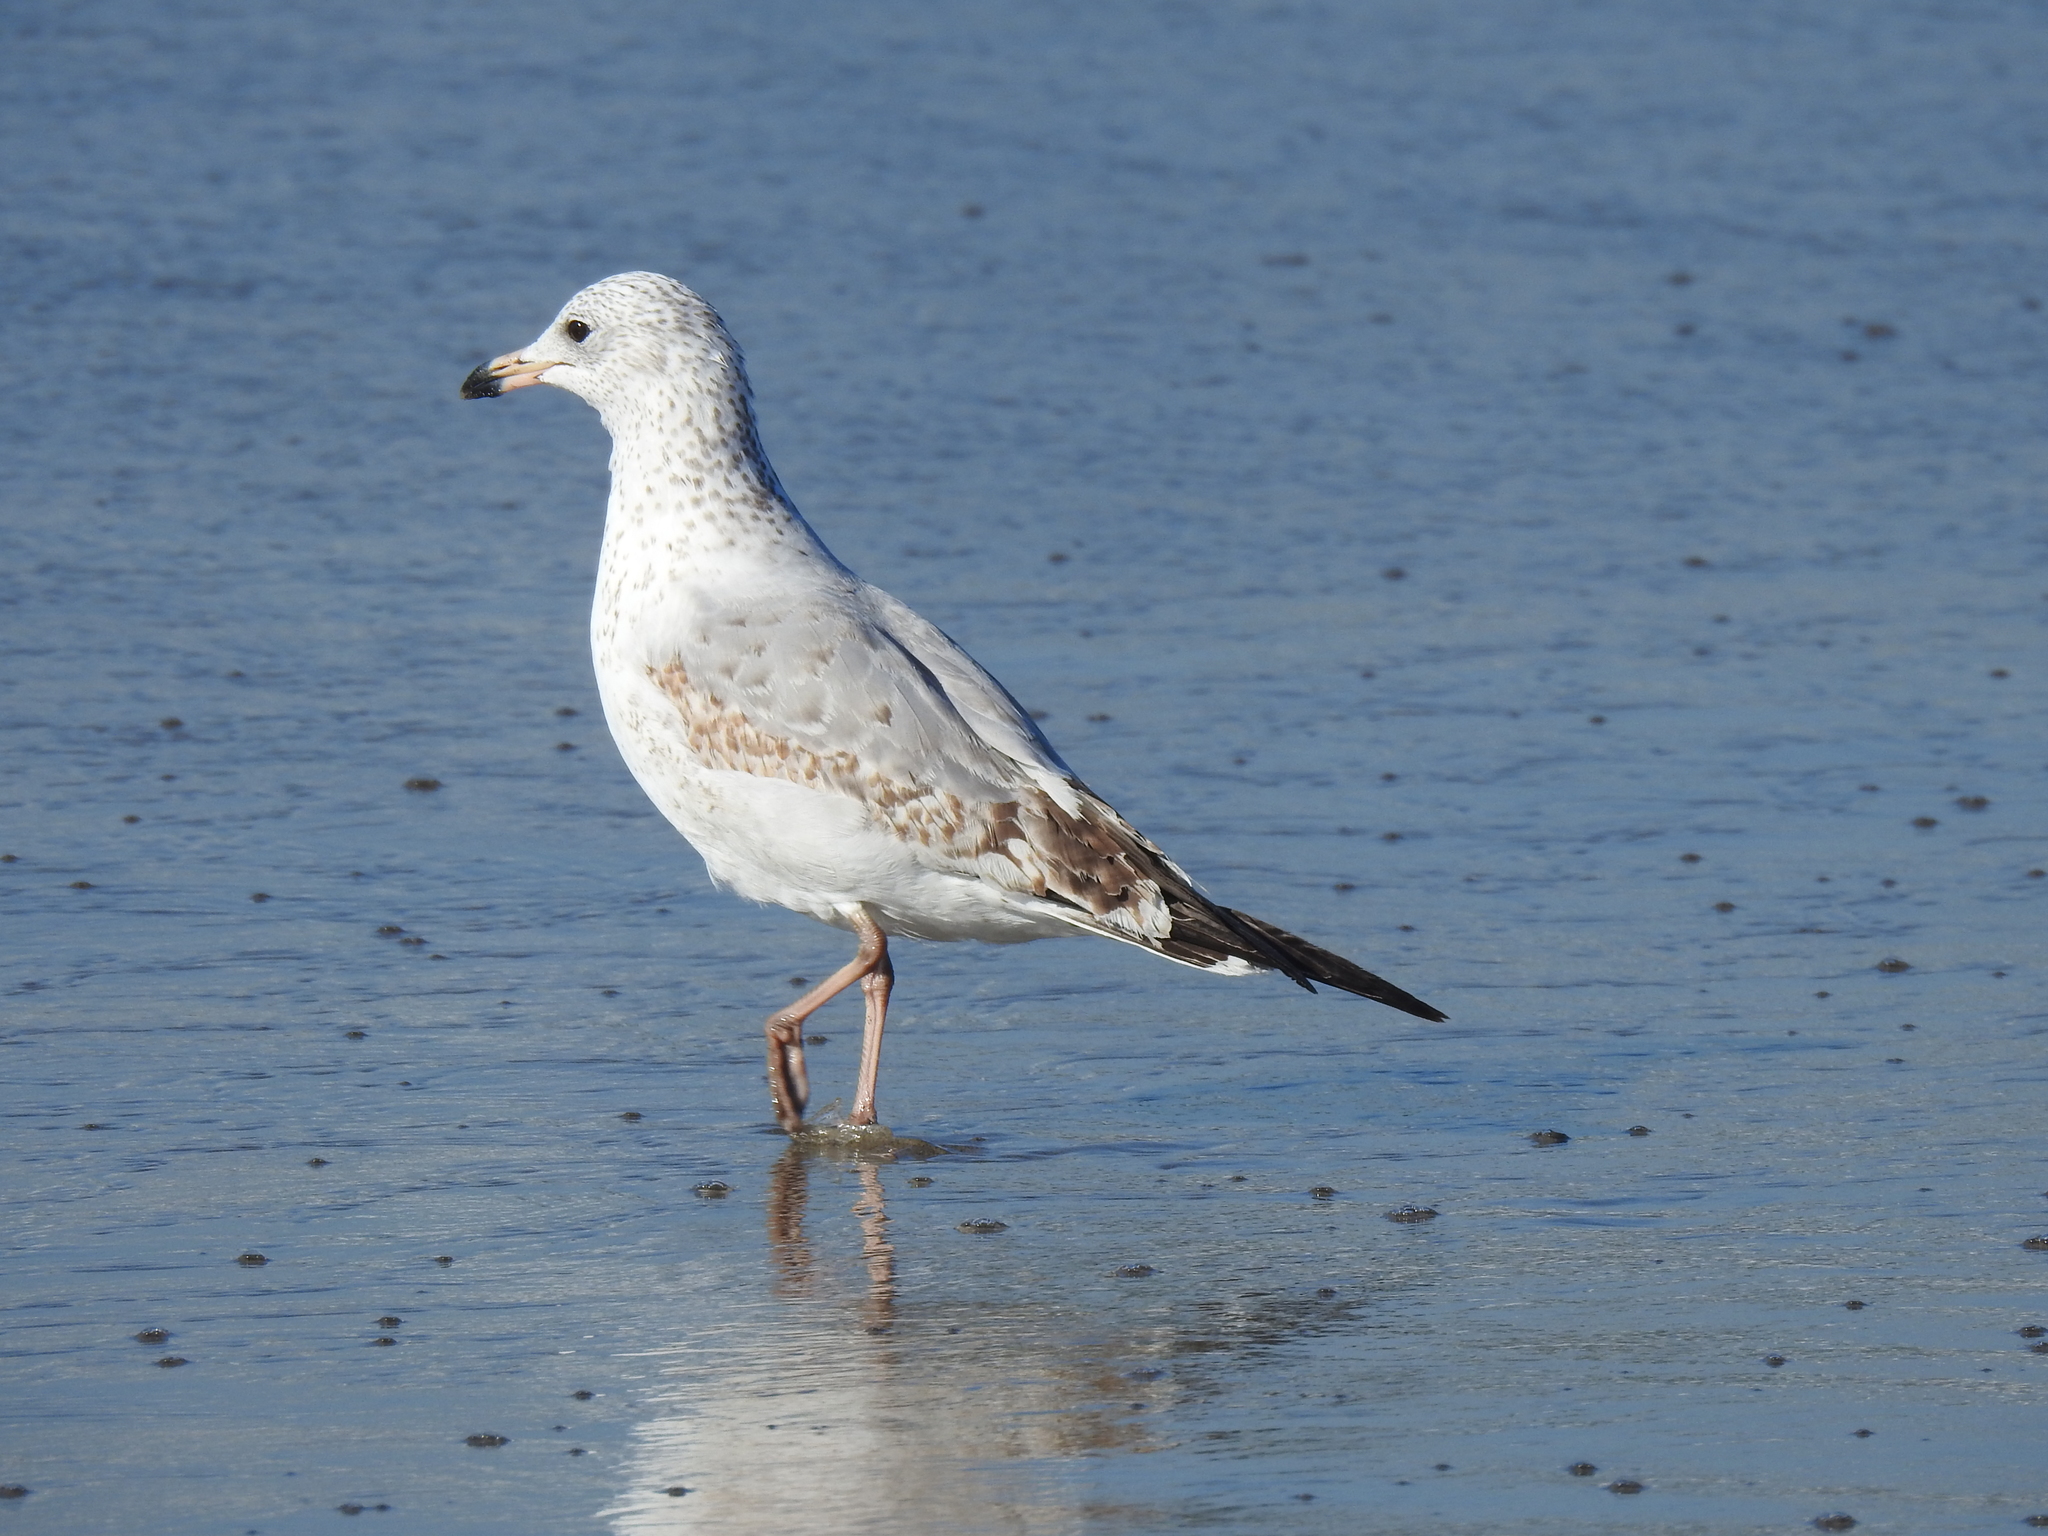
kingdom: Animalia
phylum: Chordata
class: Aves
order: Charadriiformes
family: Laridae
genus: Larus
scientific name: Larus delawarensis
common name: Ring-billed gull
